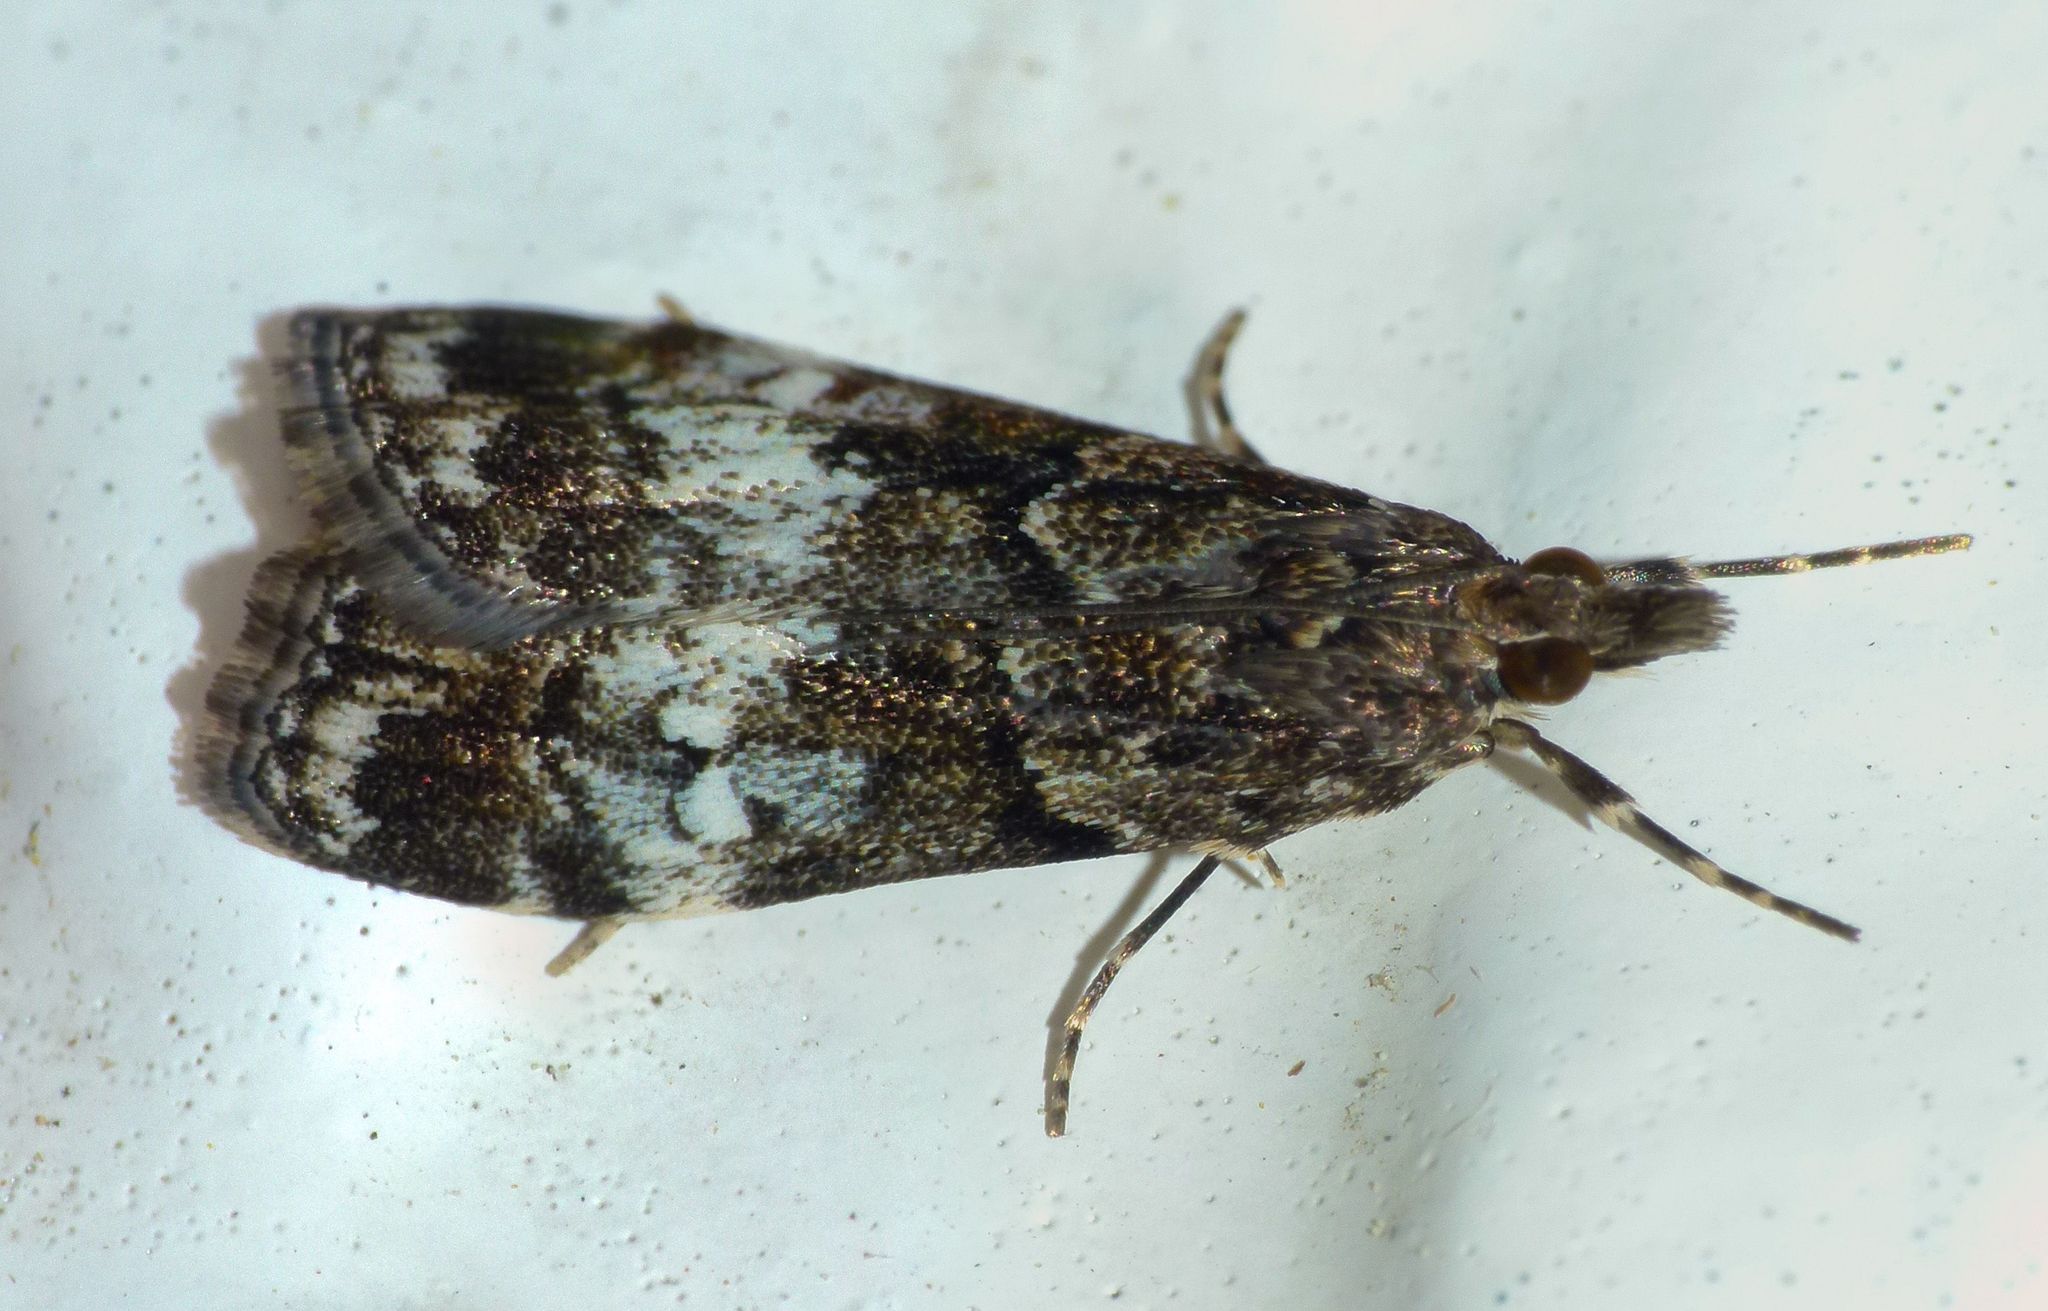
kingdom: Animalia
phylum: Arthropoda
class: Insecta
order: Lepidoptera
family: Crambidae
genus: Eudonia
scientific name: Eudonia dinodes
